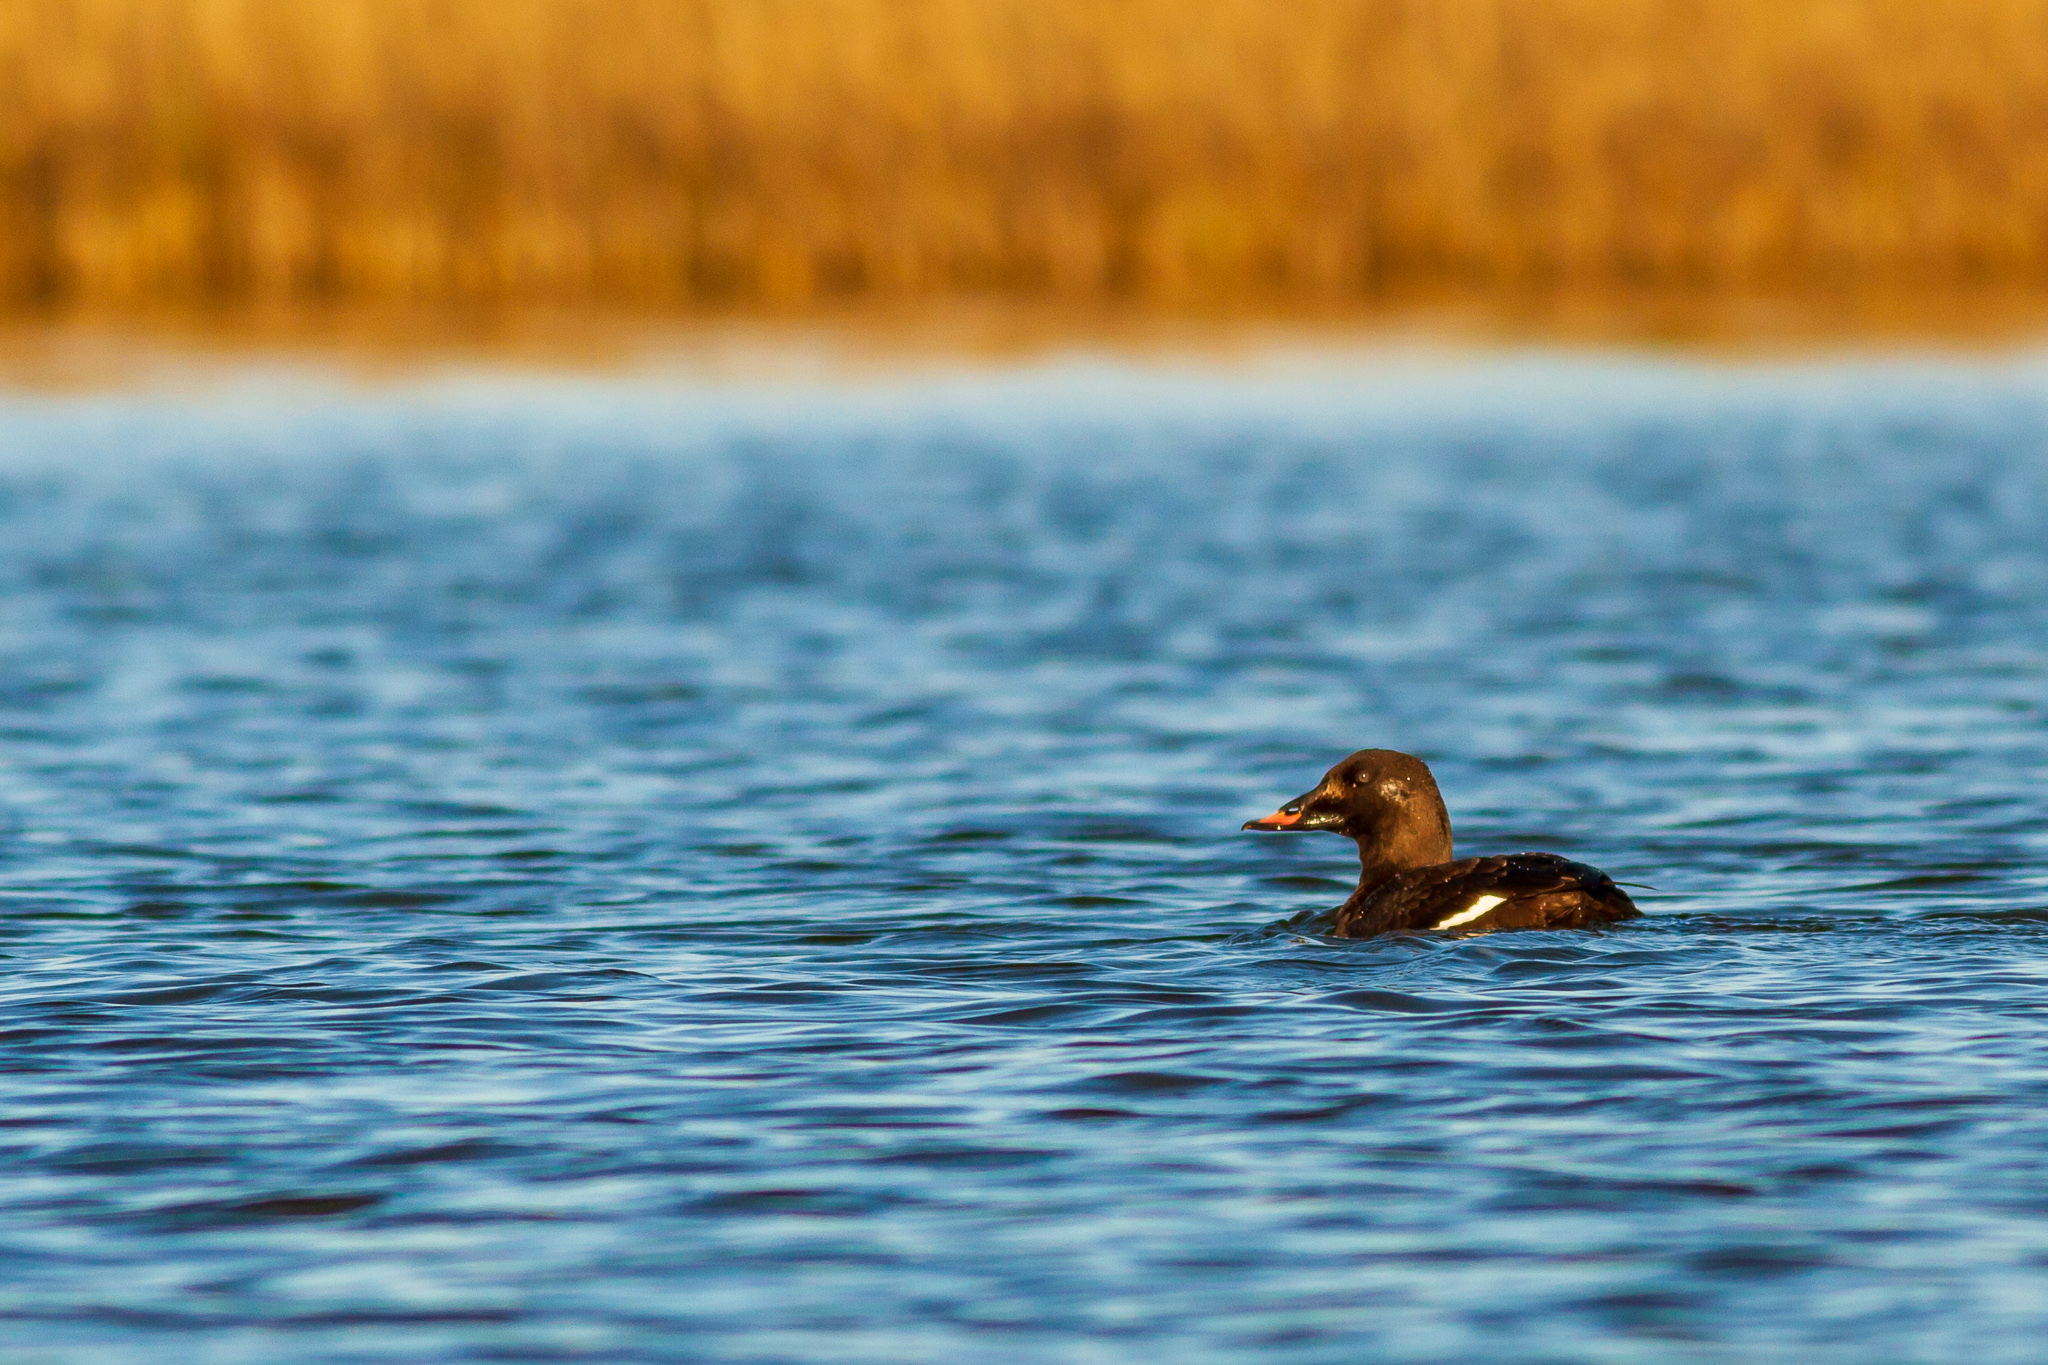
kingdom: Animalia
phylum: Chordata
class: Aves
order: Anseriformes
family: Anatidae
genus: Melanitta
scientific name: Melanitta deglandi
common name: White-winged scoter
